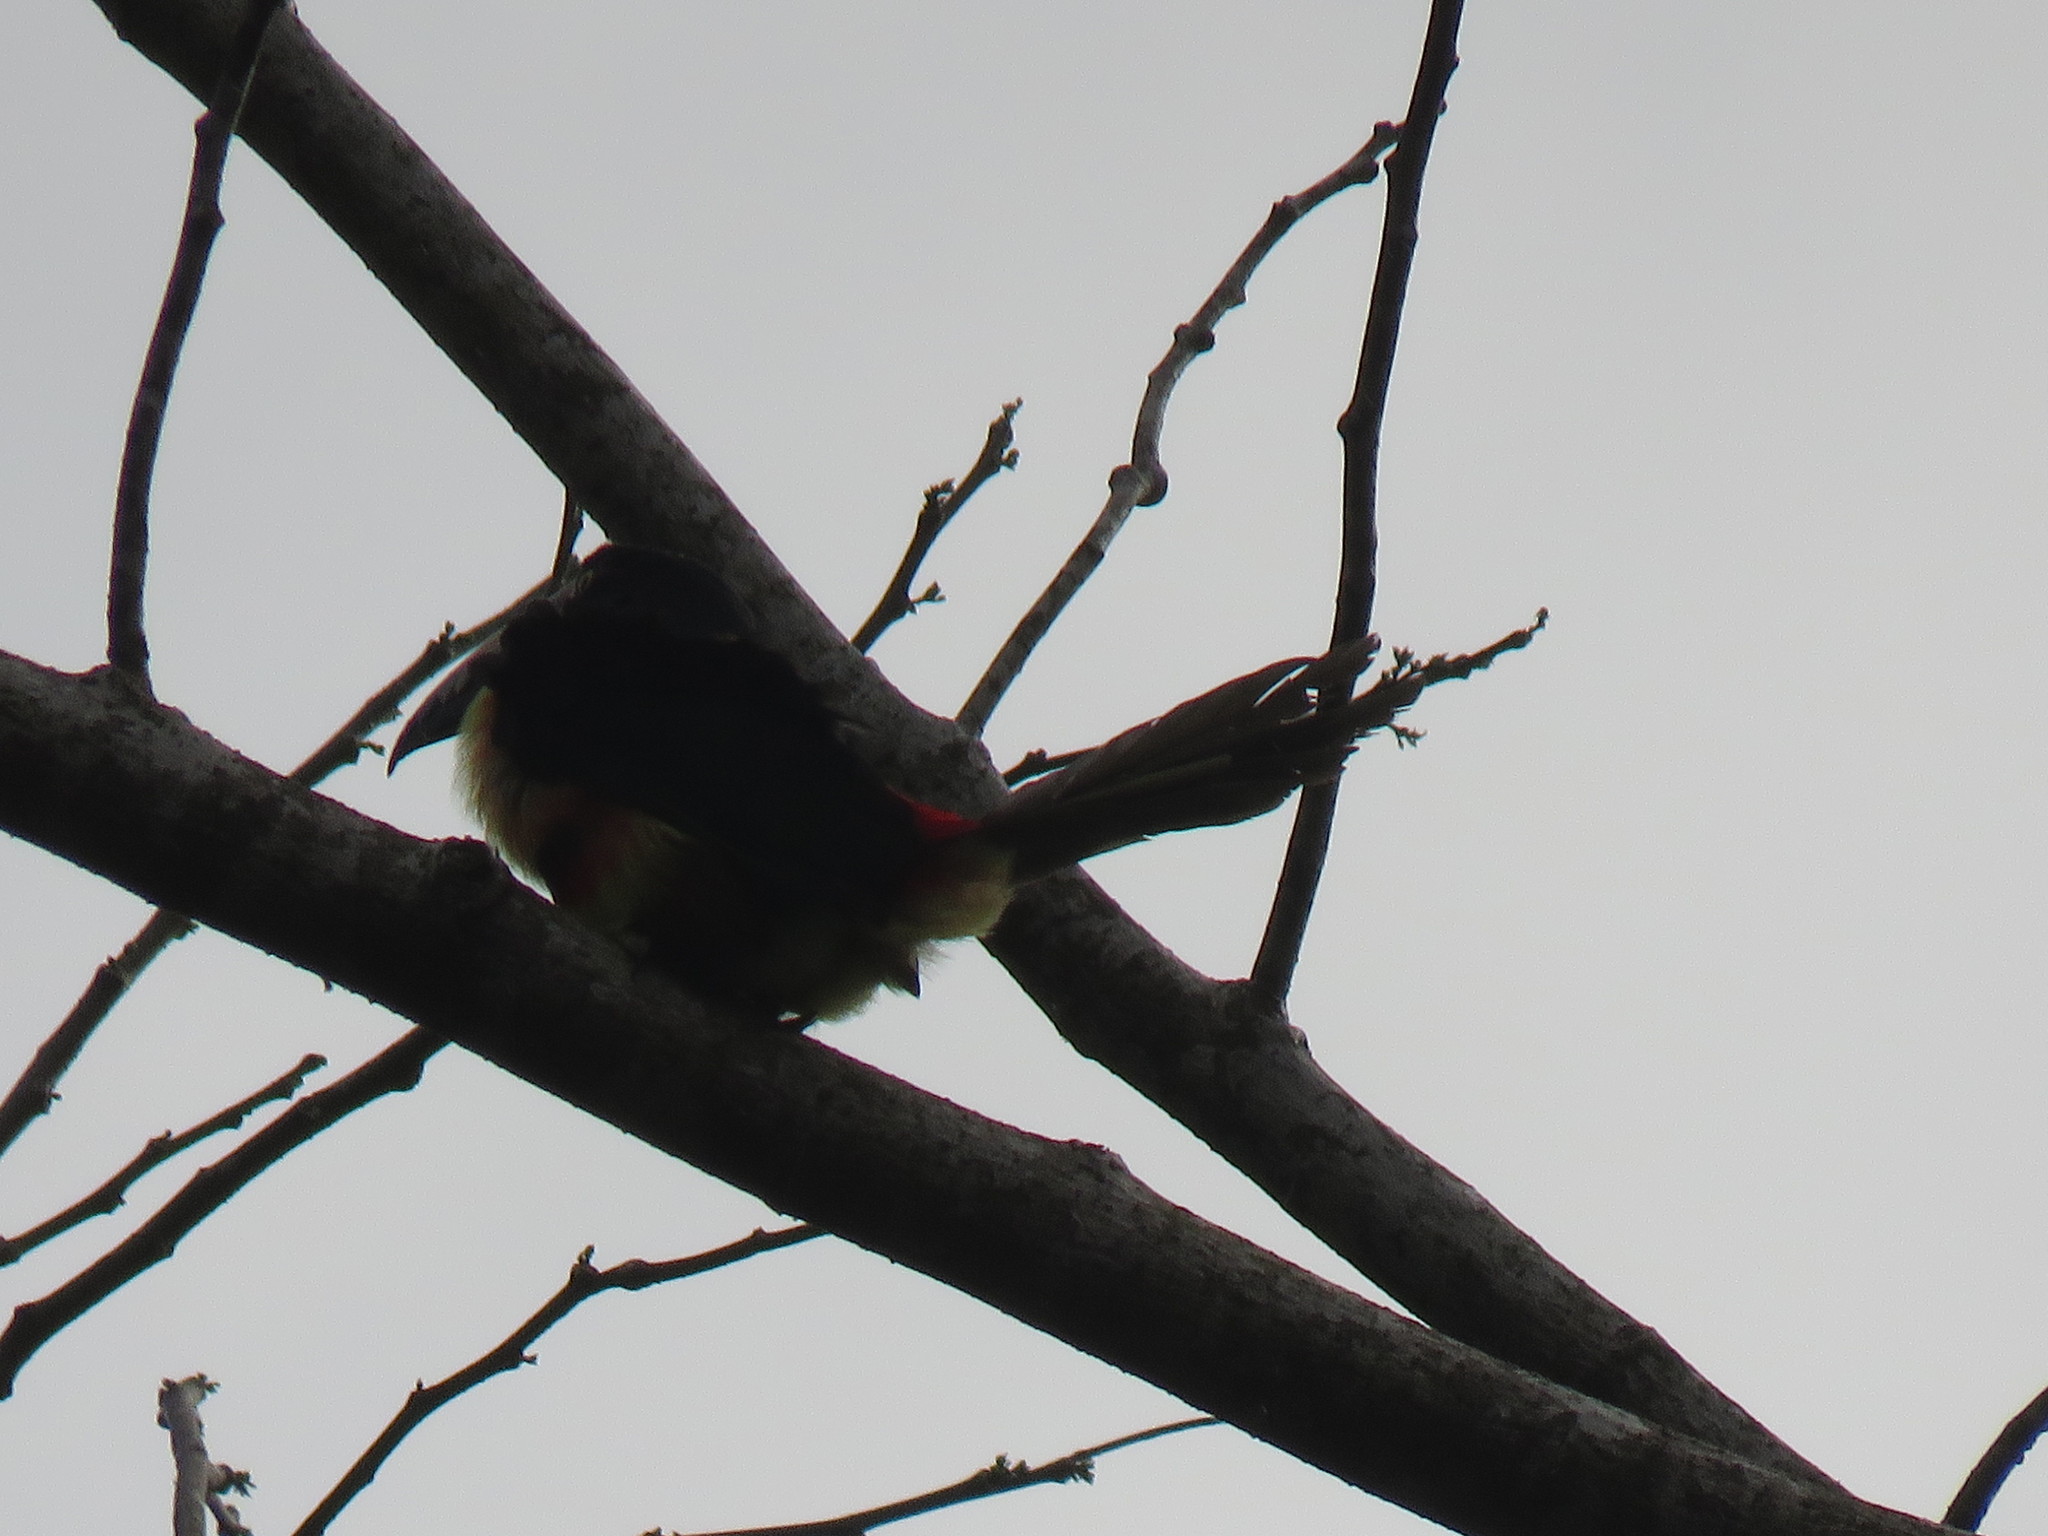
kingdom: Animalia
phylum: Chordata
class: Aves
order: Piciformes
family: Ramphastidae
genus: Pteroglossus
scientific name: Pteroglossus torquatus
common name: Collared aracari
